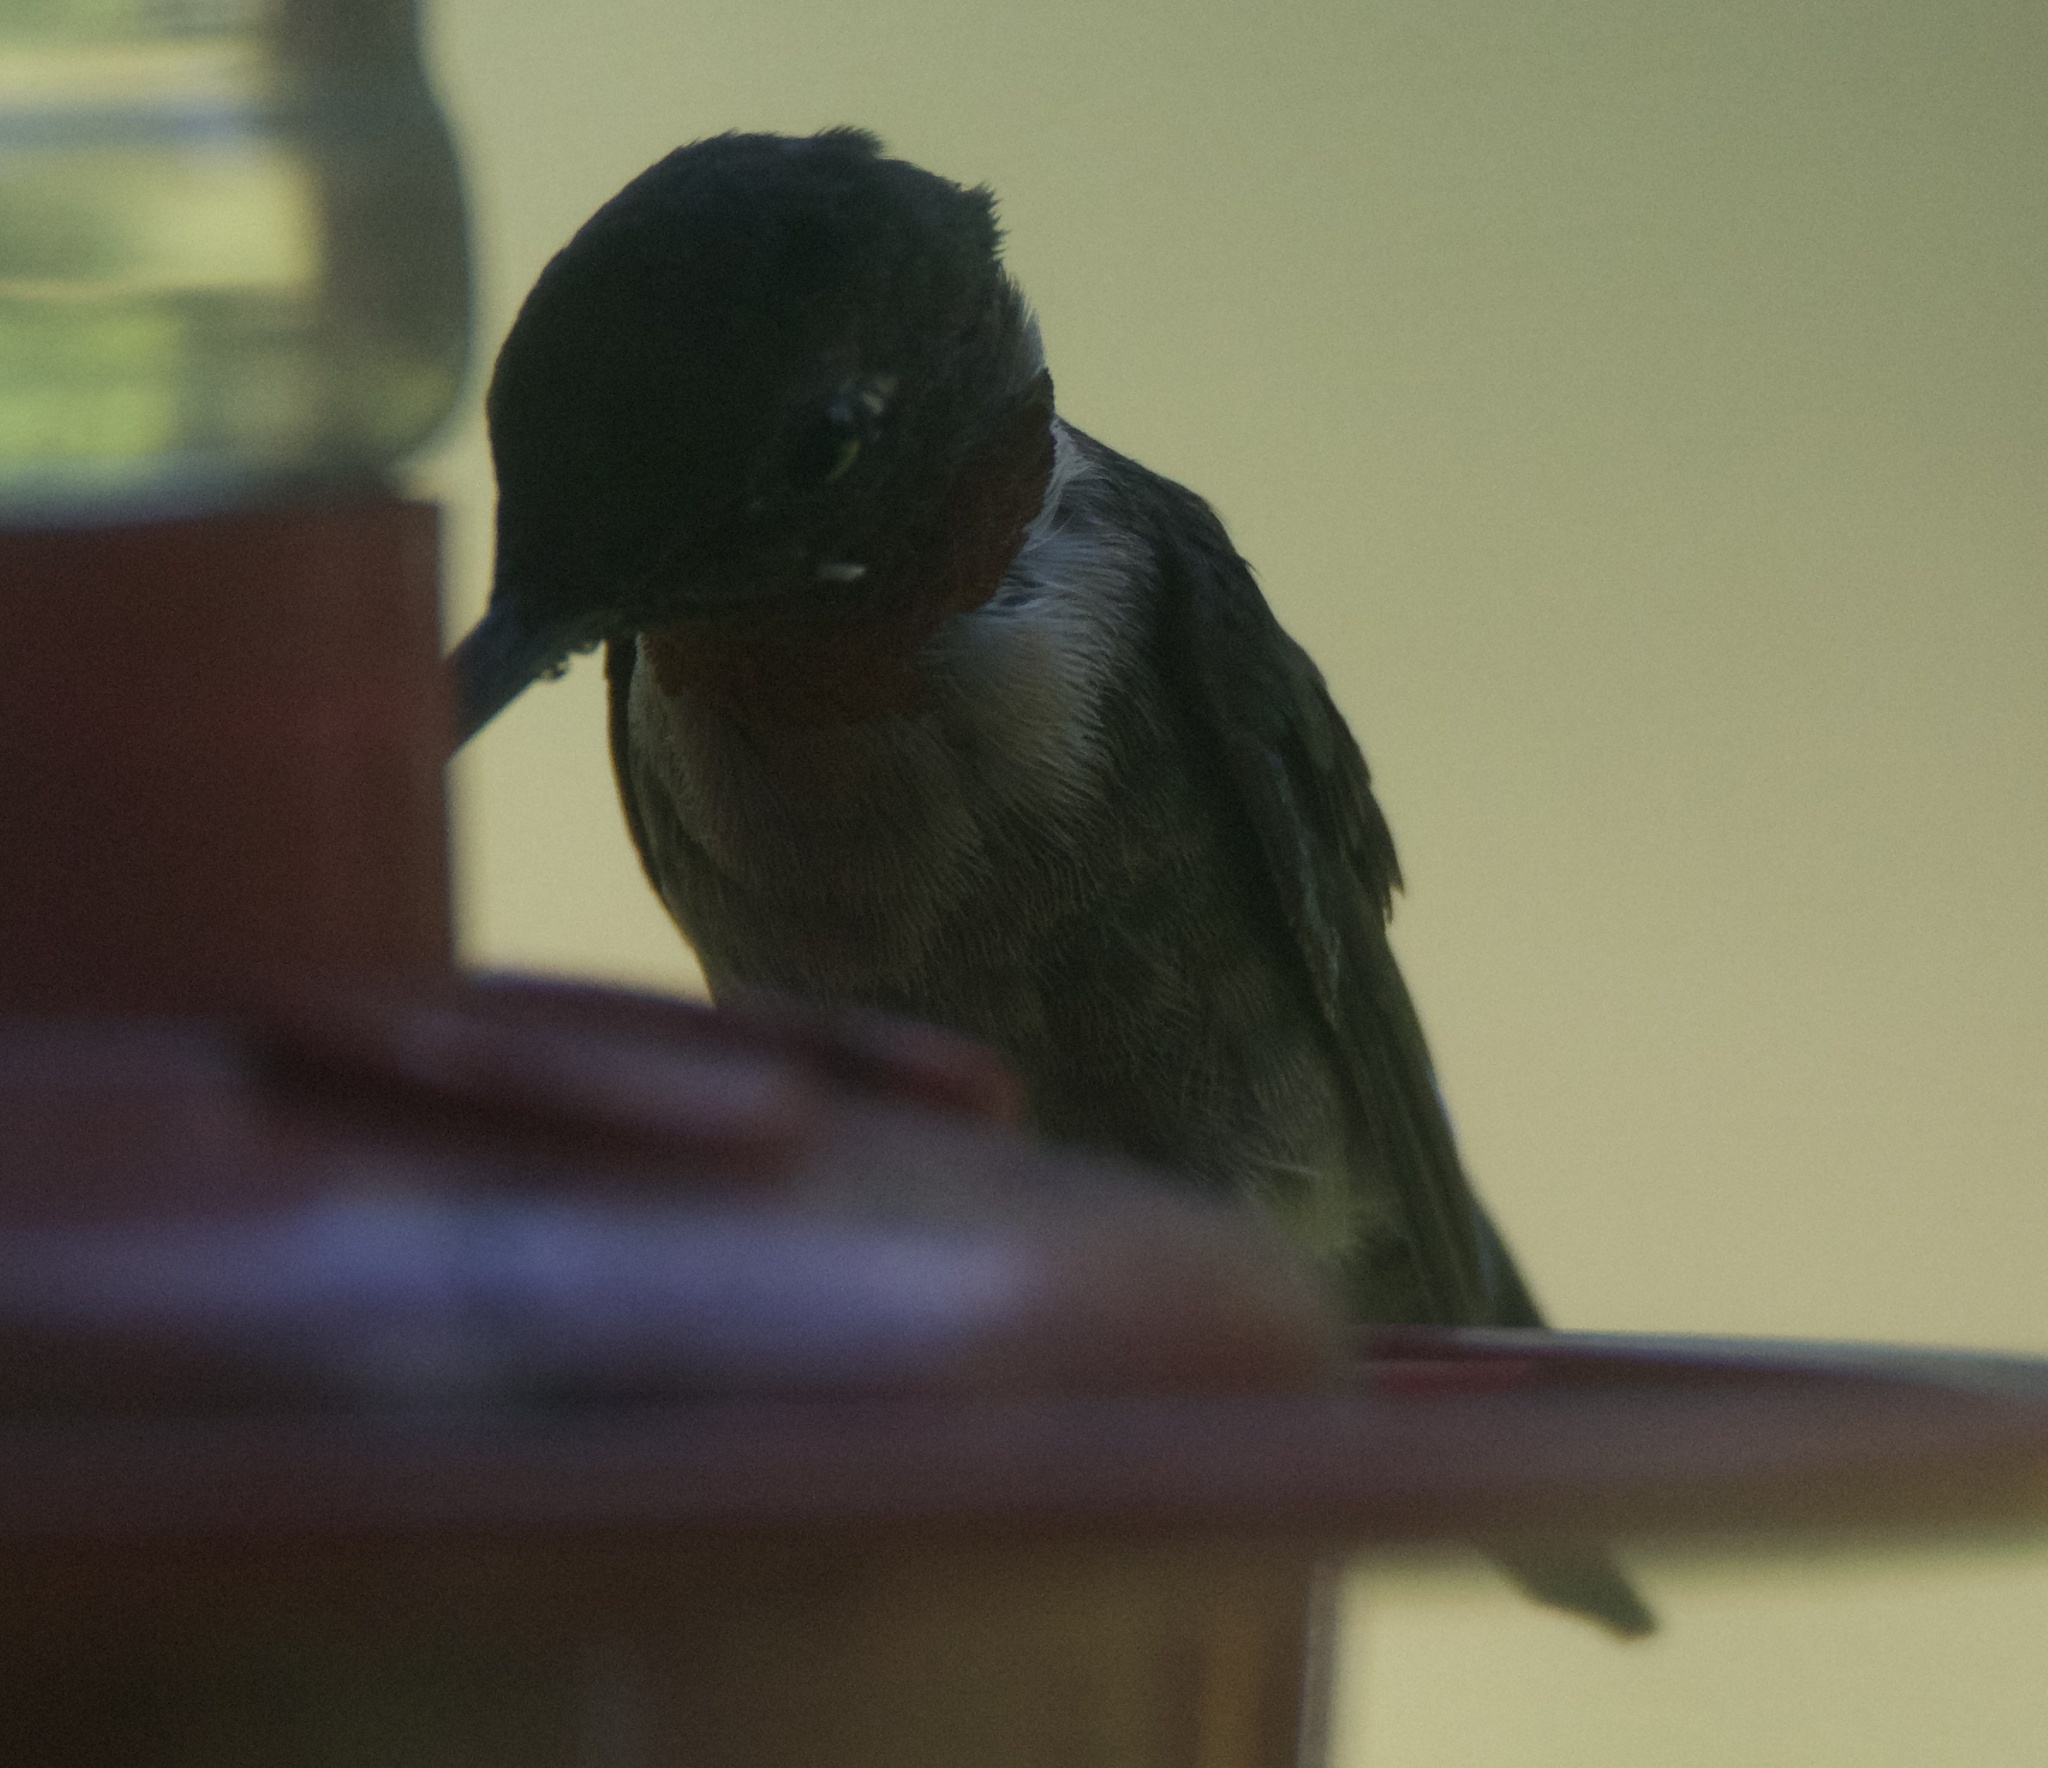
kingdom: Animalia
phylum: Chordata
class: Aves
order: Apodiformes
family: Trochilidae
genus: Archilochus
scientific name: Archilochus colubris
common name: Ruby-throated hummingbird
